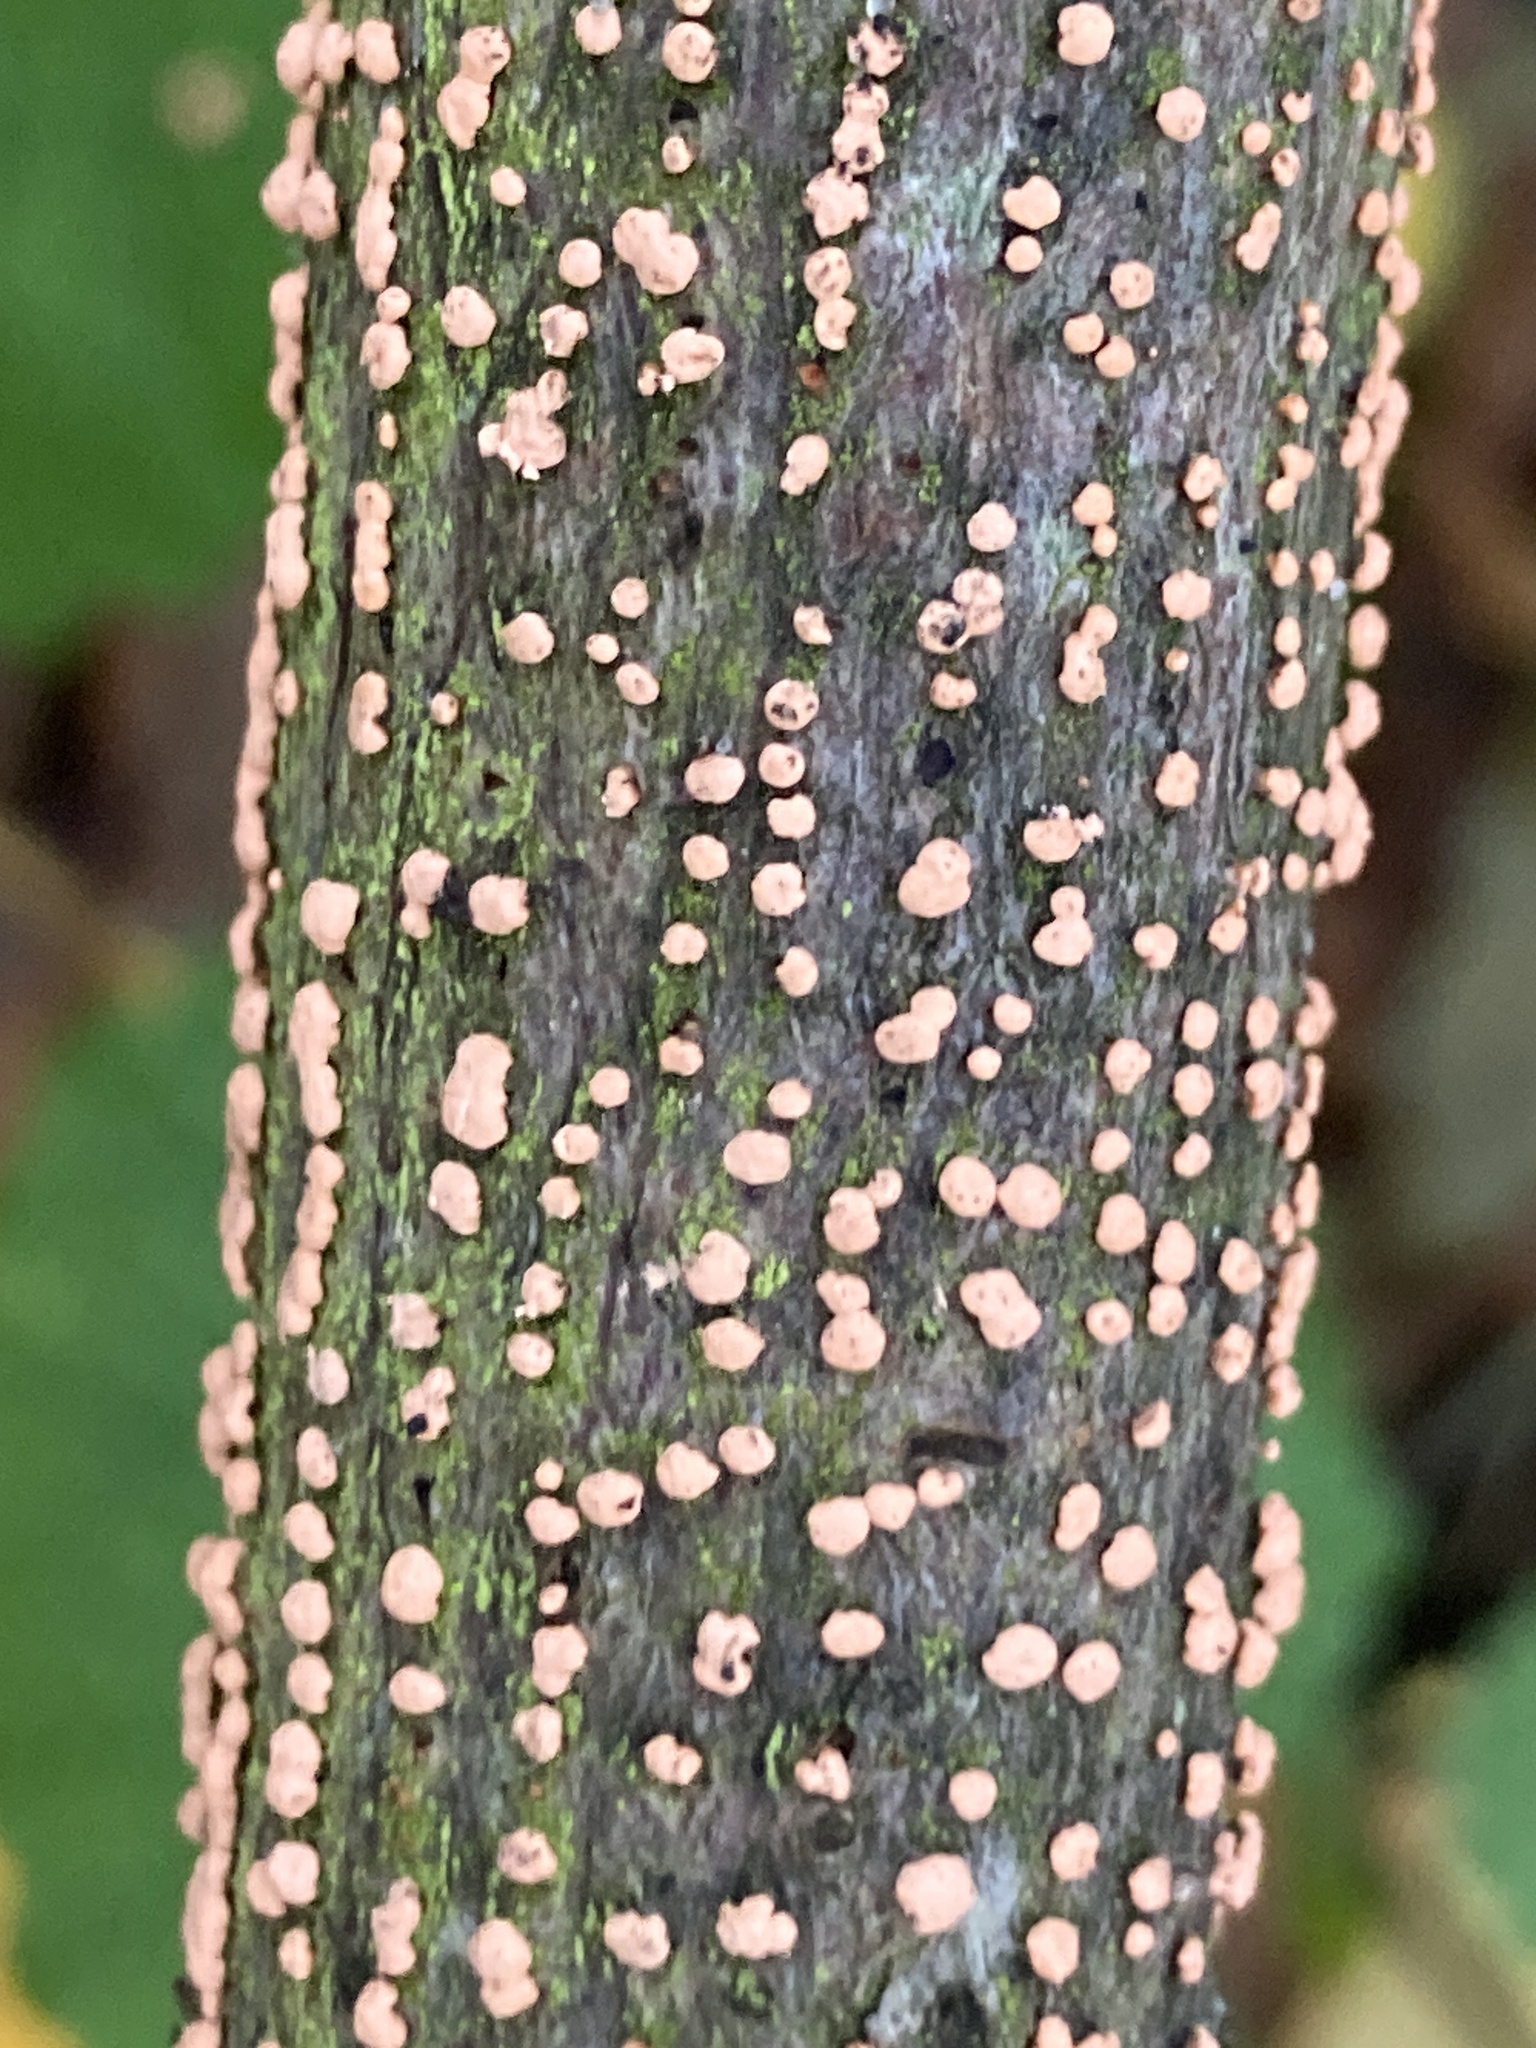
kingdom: Fungi
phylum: Ascomycota
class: Sordariomycetes
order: Hypocreales
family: Nectriaceae
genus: Nectria
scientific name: Nectria cinnabarina
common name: Coral spot
